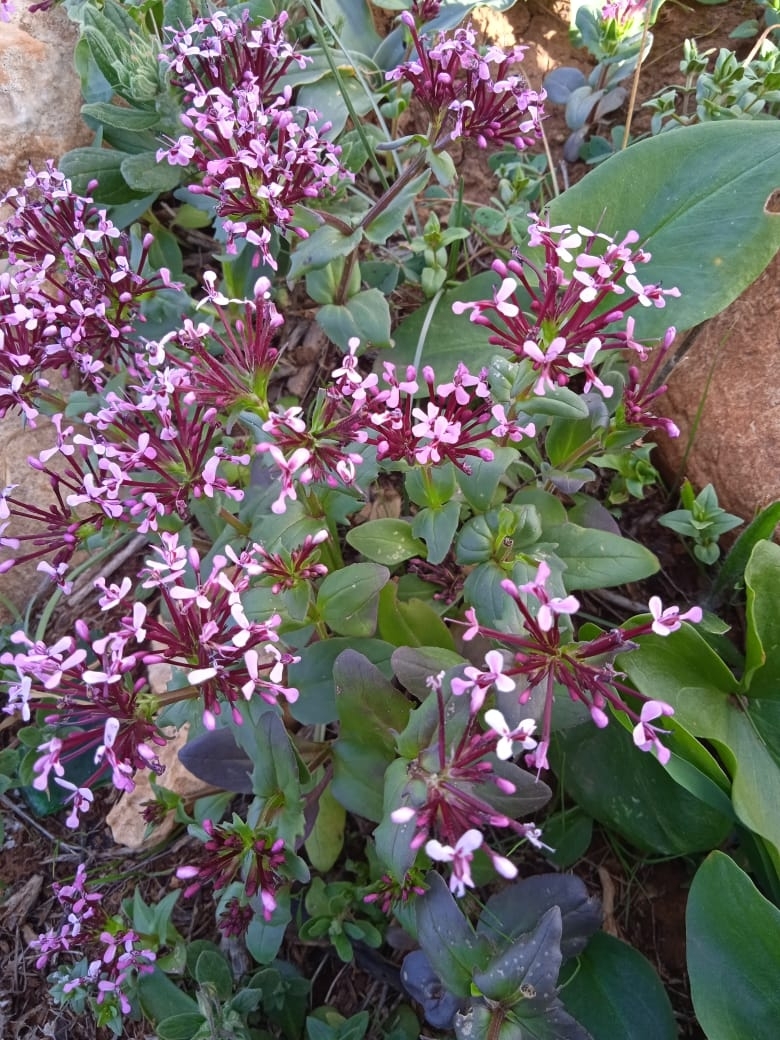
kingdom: Plantae
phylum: Tracheophyta
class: Magnoliopsida
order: Dipsacales
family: Caprifoliaceae
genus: Fedia
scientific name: Fedia graciliflora
